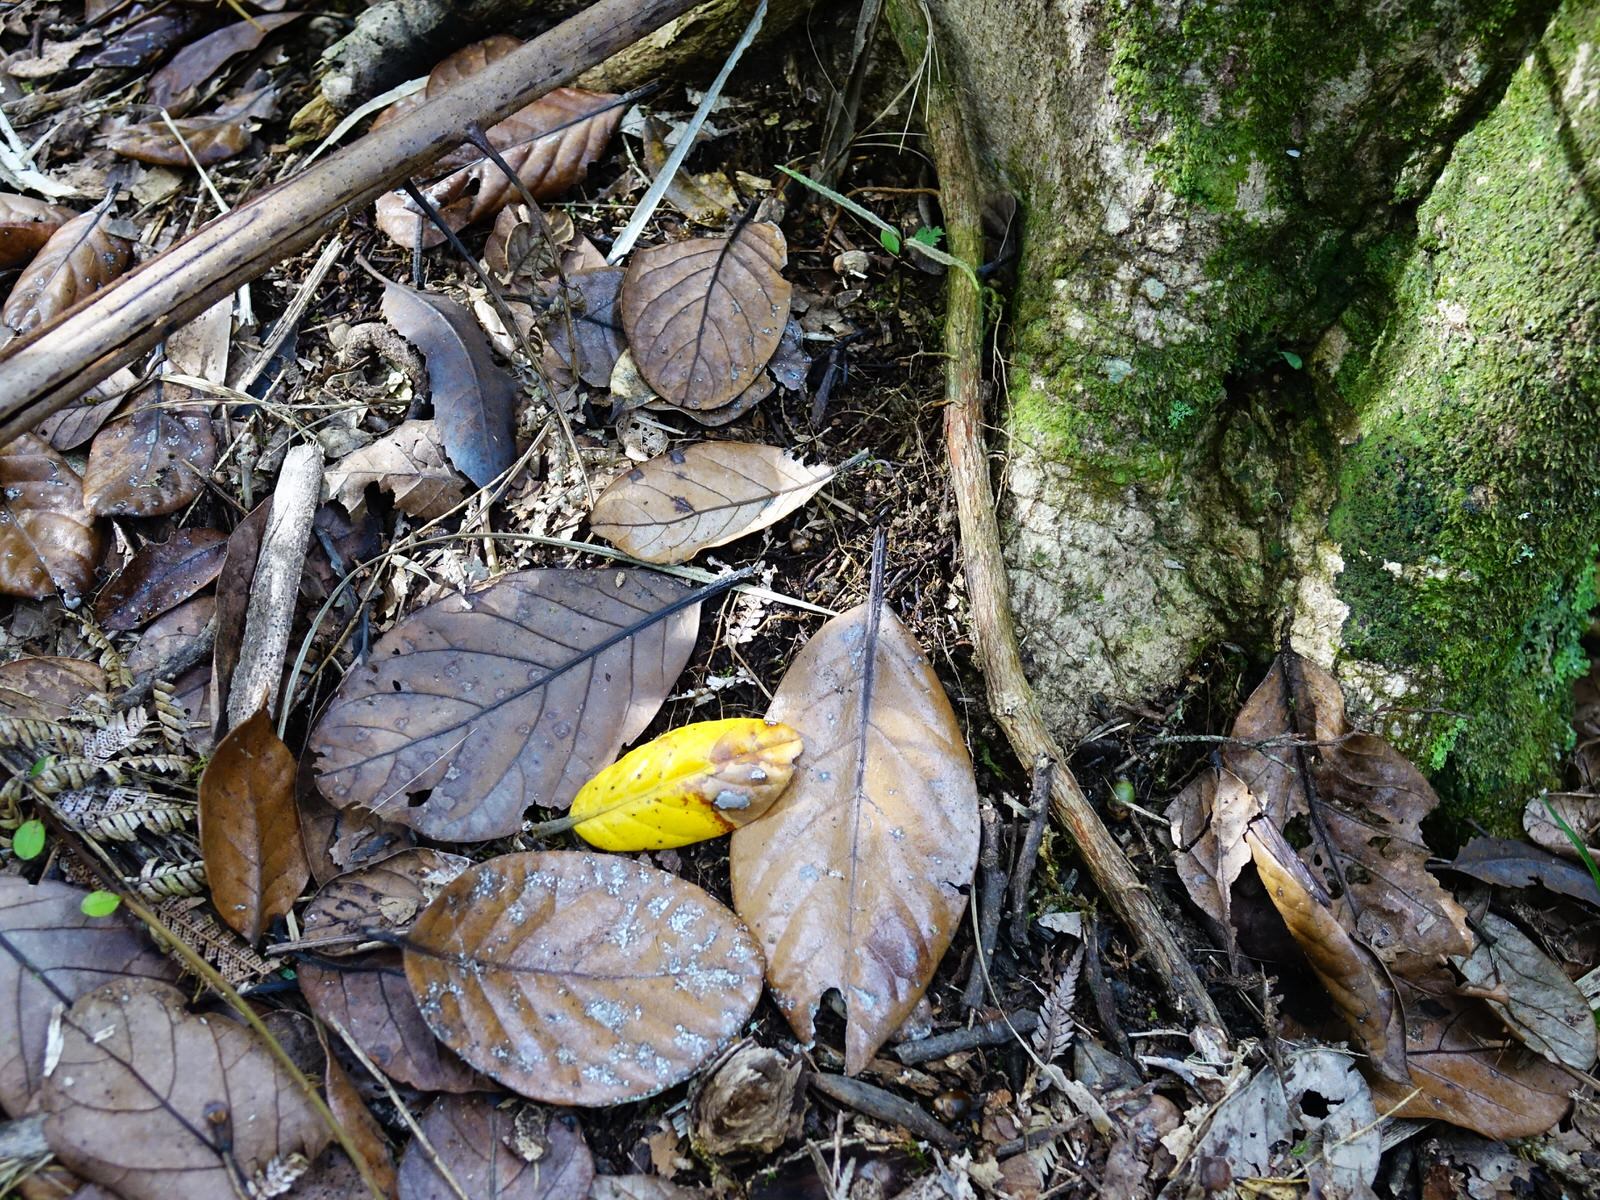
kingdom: Plantae
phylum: Tracheophyta
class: Magnoliopsida
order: Laurales
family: Lauraceae
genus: Beilschmiedia
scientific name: Beilschmiedia tarairi
